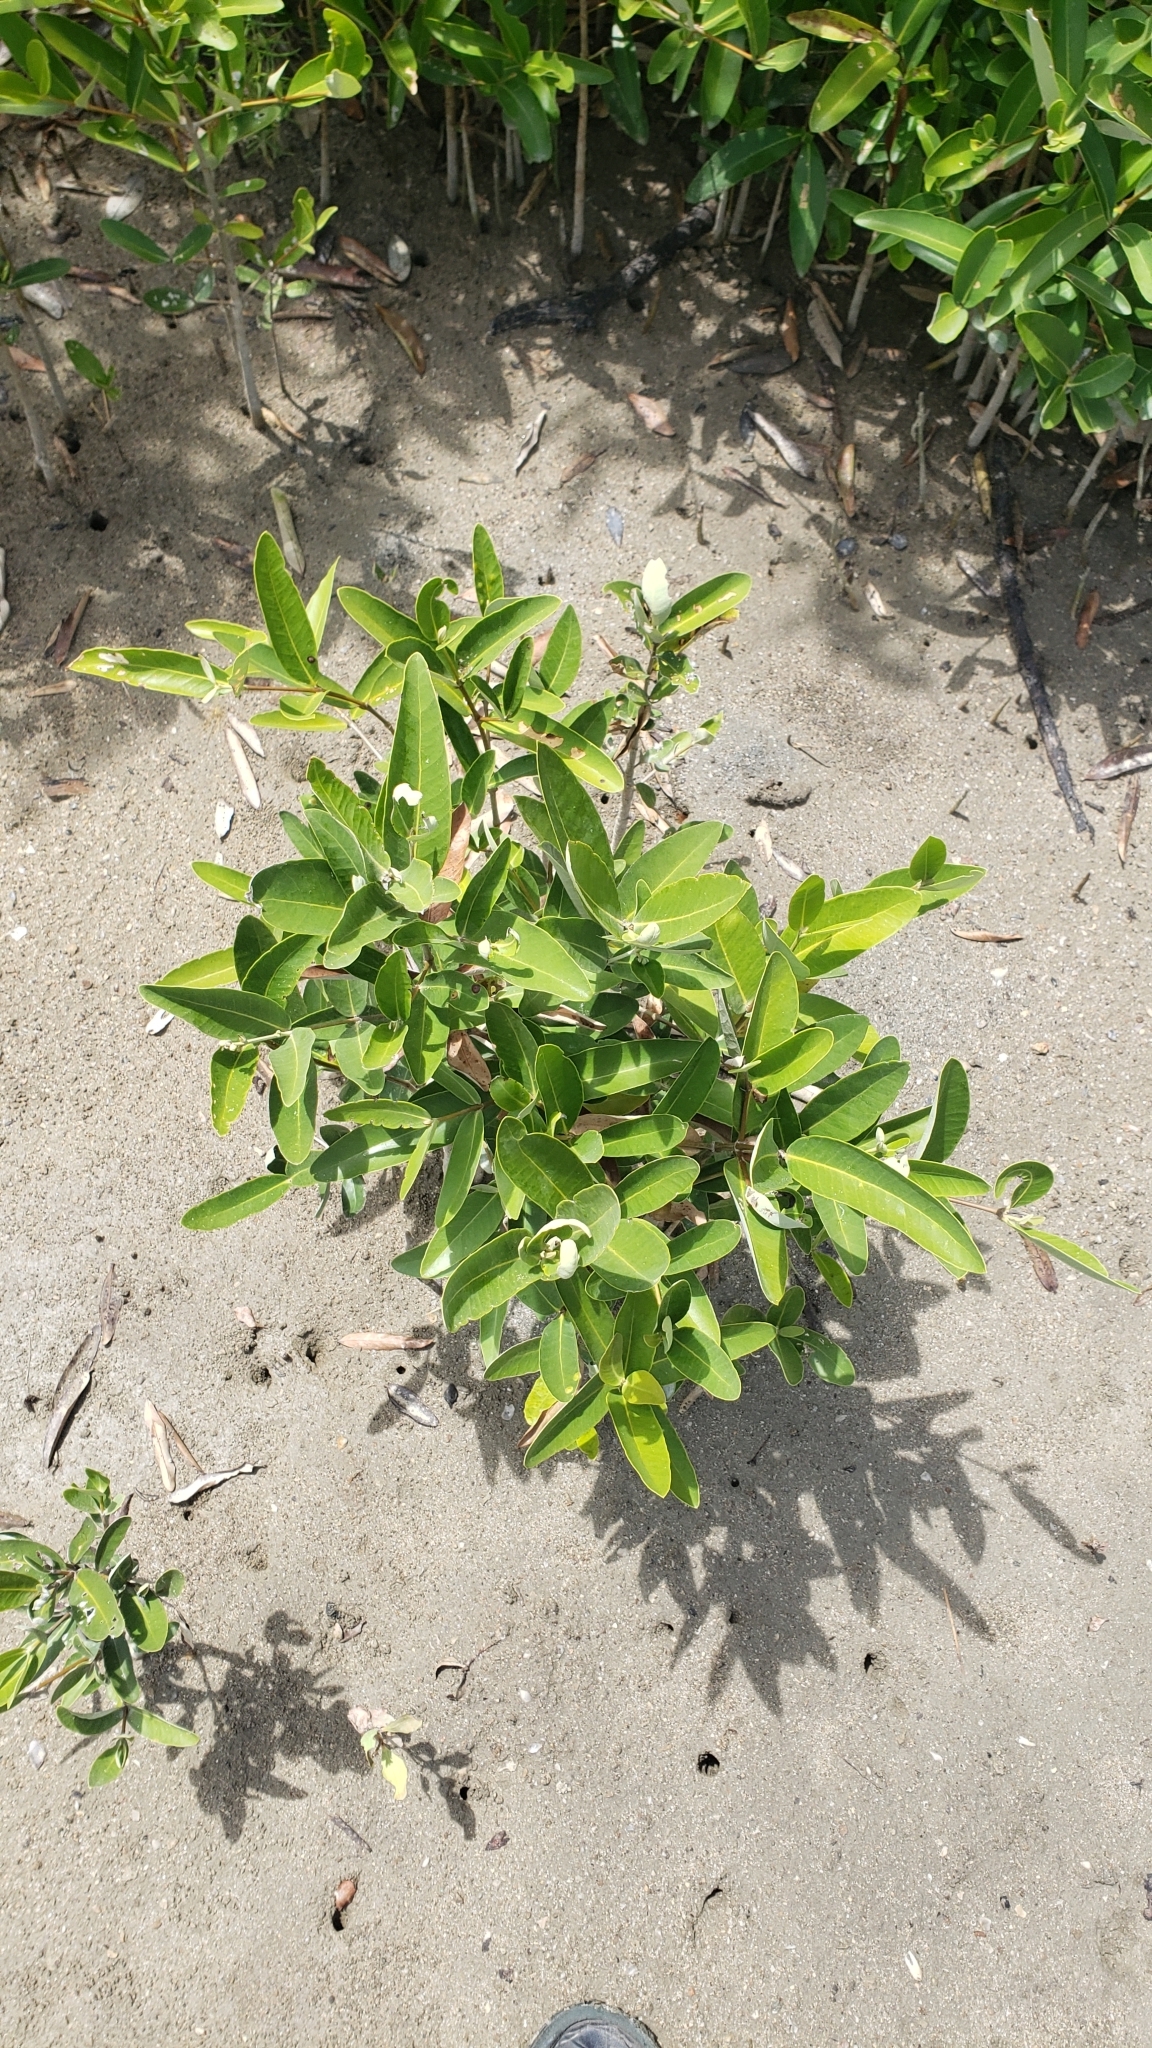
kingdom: Plantae
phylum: Tracheophyta
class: Magnoliopsida
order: Lamiales
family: Acanthaceae
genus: Avicennia
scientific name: Avicennia germinans
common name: Black mangrove
